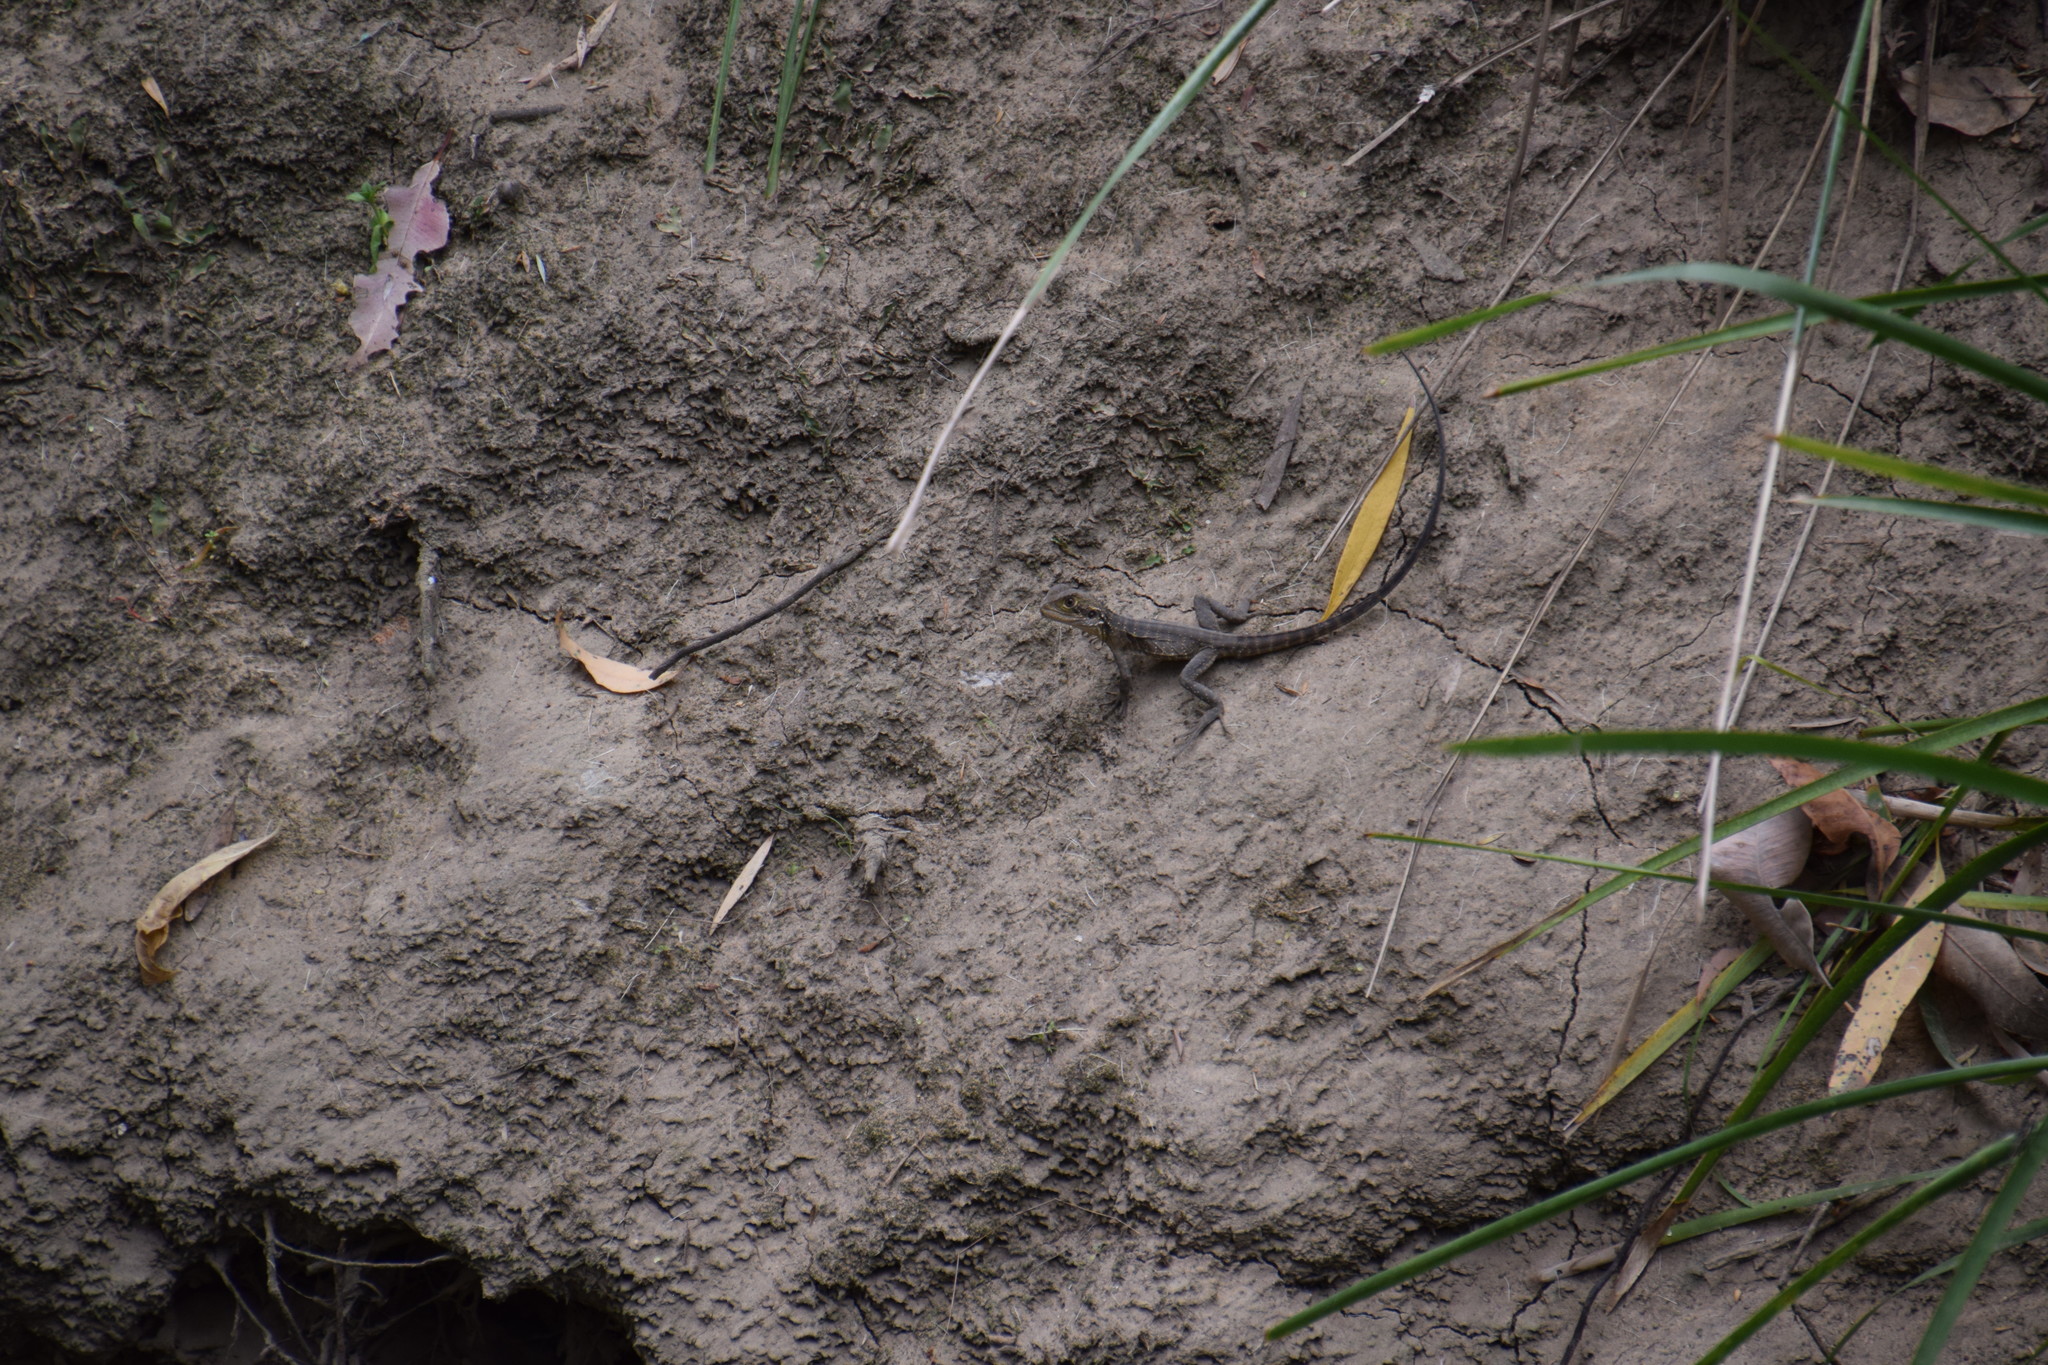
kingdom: Animalia
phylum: Chordata
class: Squamata
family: Agamidae
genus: Intellagama
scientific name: Intellagama lesueurii
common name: Eastern water dragon
